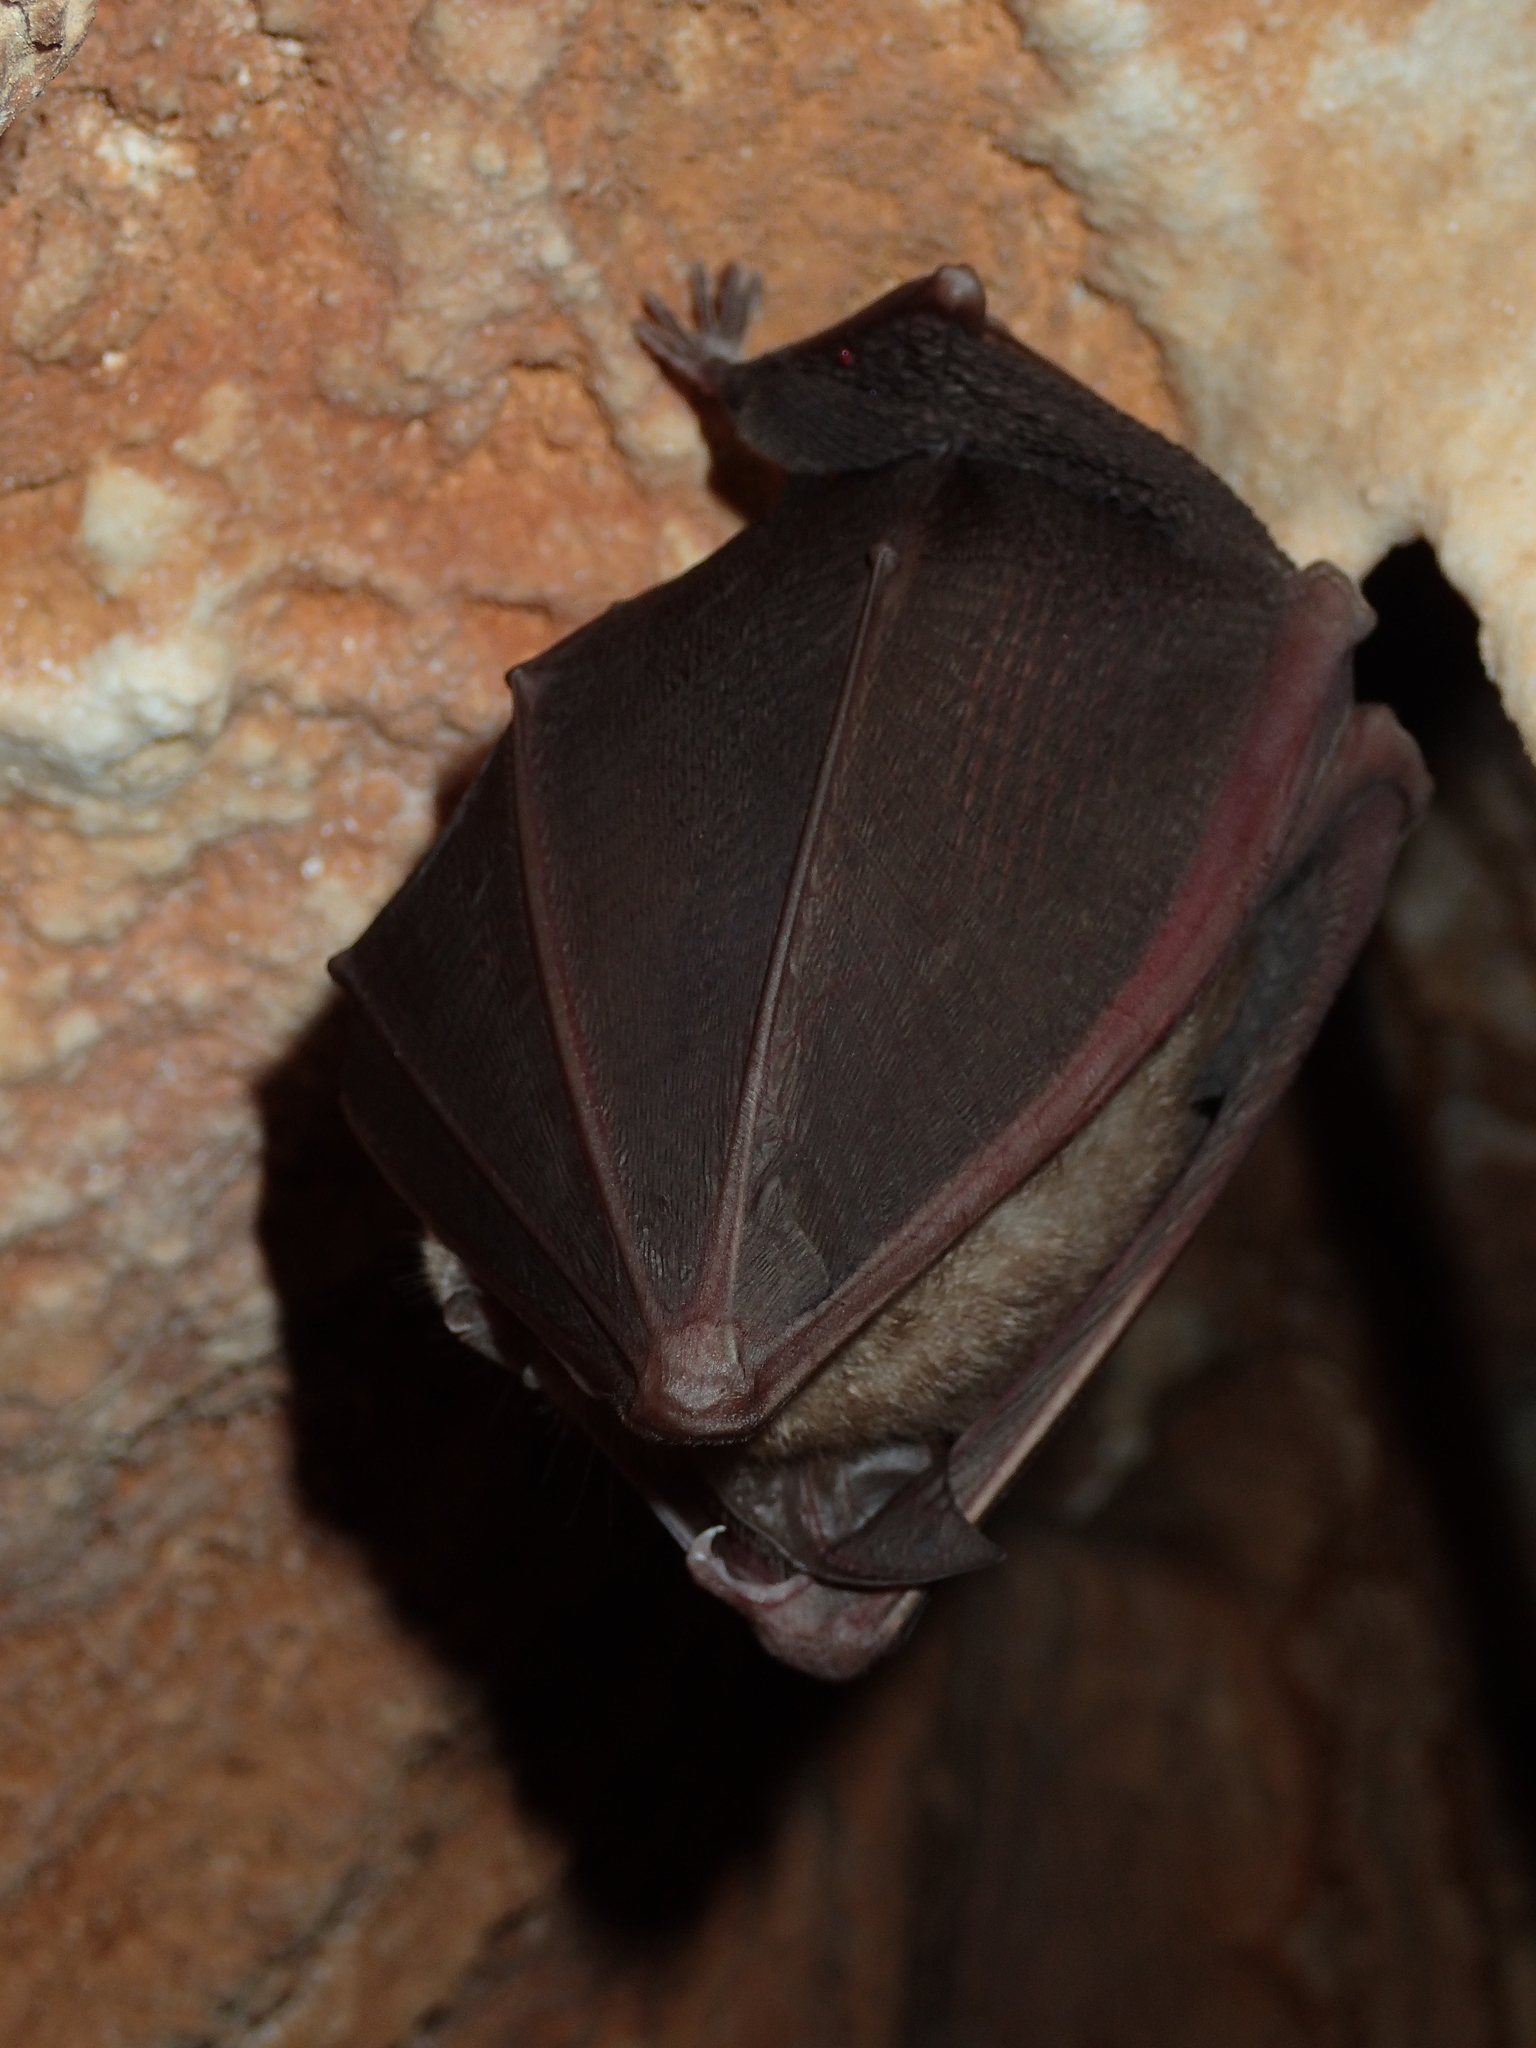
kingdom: Animalia
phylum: Chordata
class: Mammalia
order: Chiroptera
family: Rhinolophidae
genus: Rhinolophus
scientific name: Rhinolophus ferrumequinum
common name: Greater horseshoe bat
